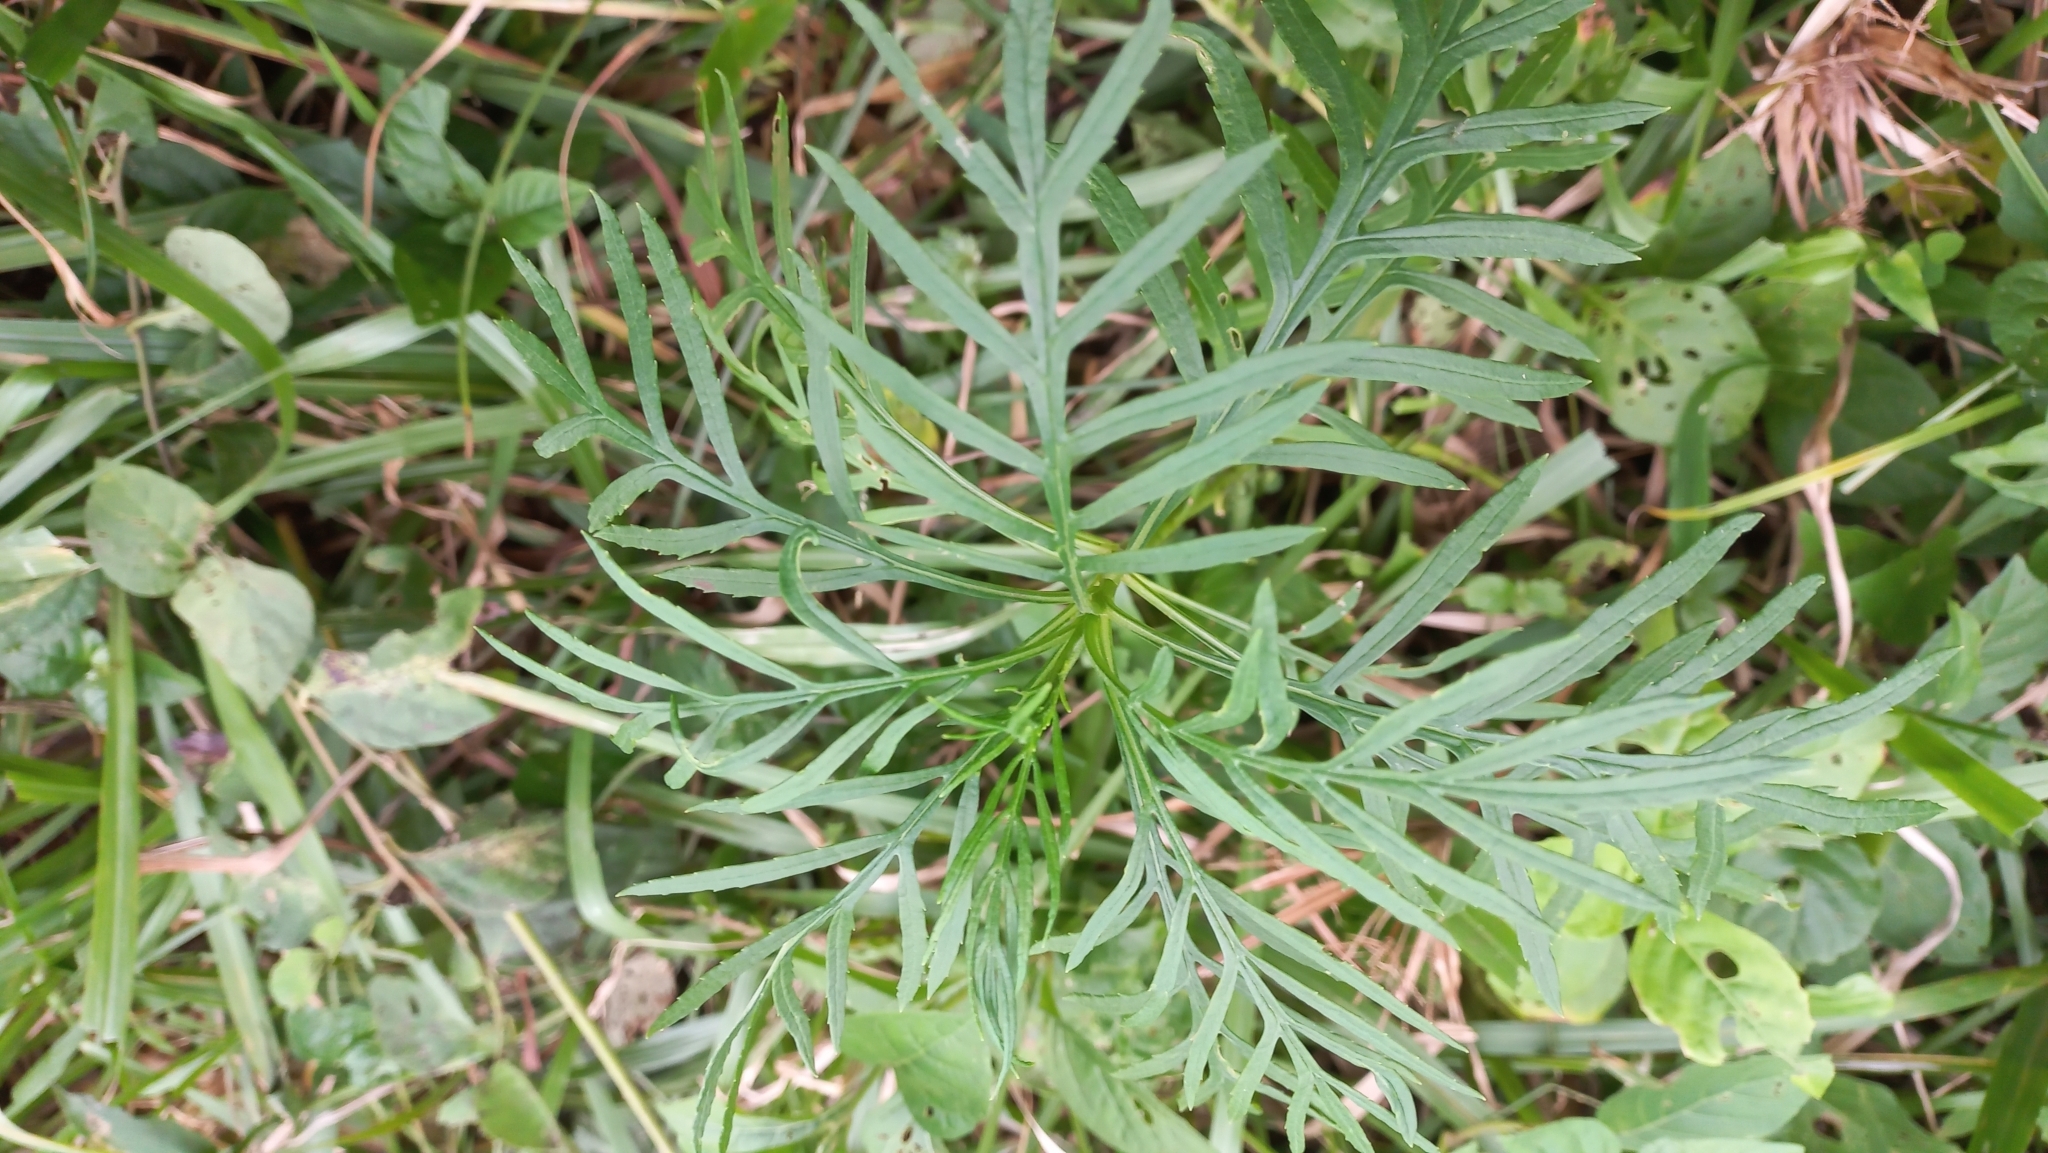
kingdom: Plantae
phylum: Tracheophyta
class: Magnoliopsida
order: Asterales
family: Asteraceae
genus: Senecio
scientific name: Senecio brasiliensis
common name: Hemp-leaf ragwort
